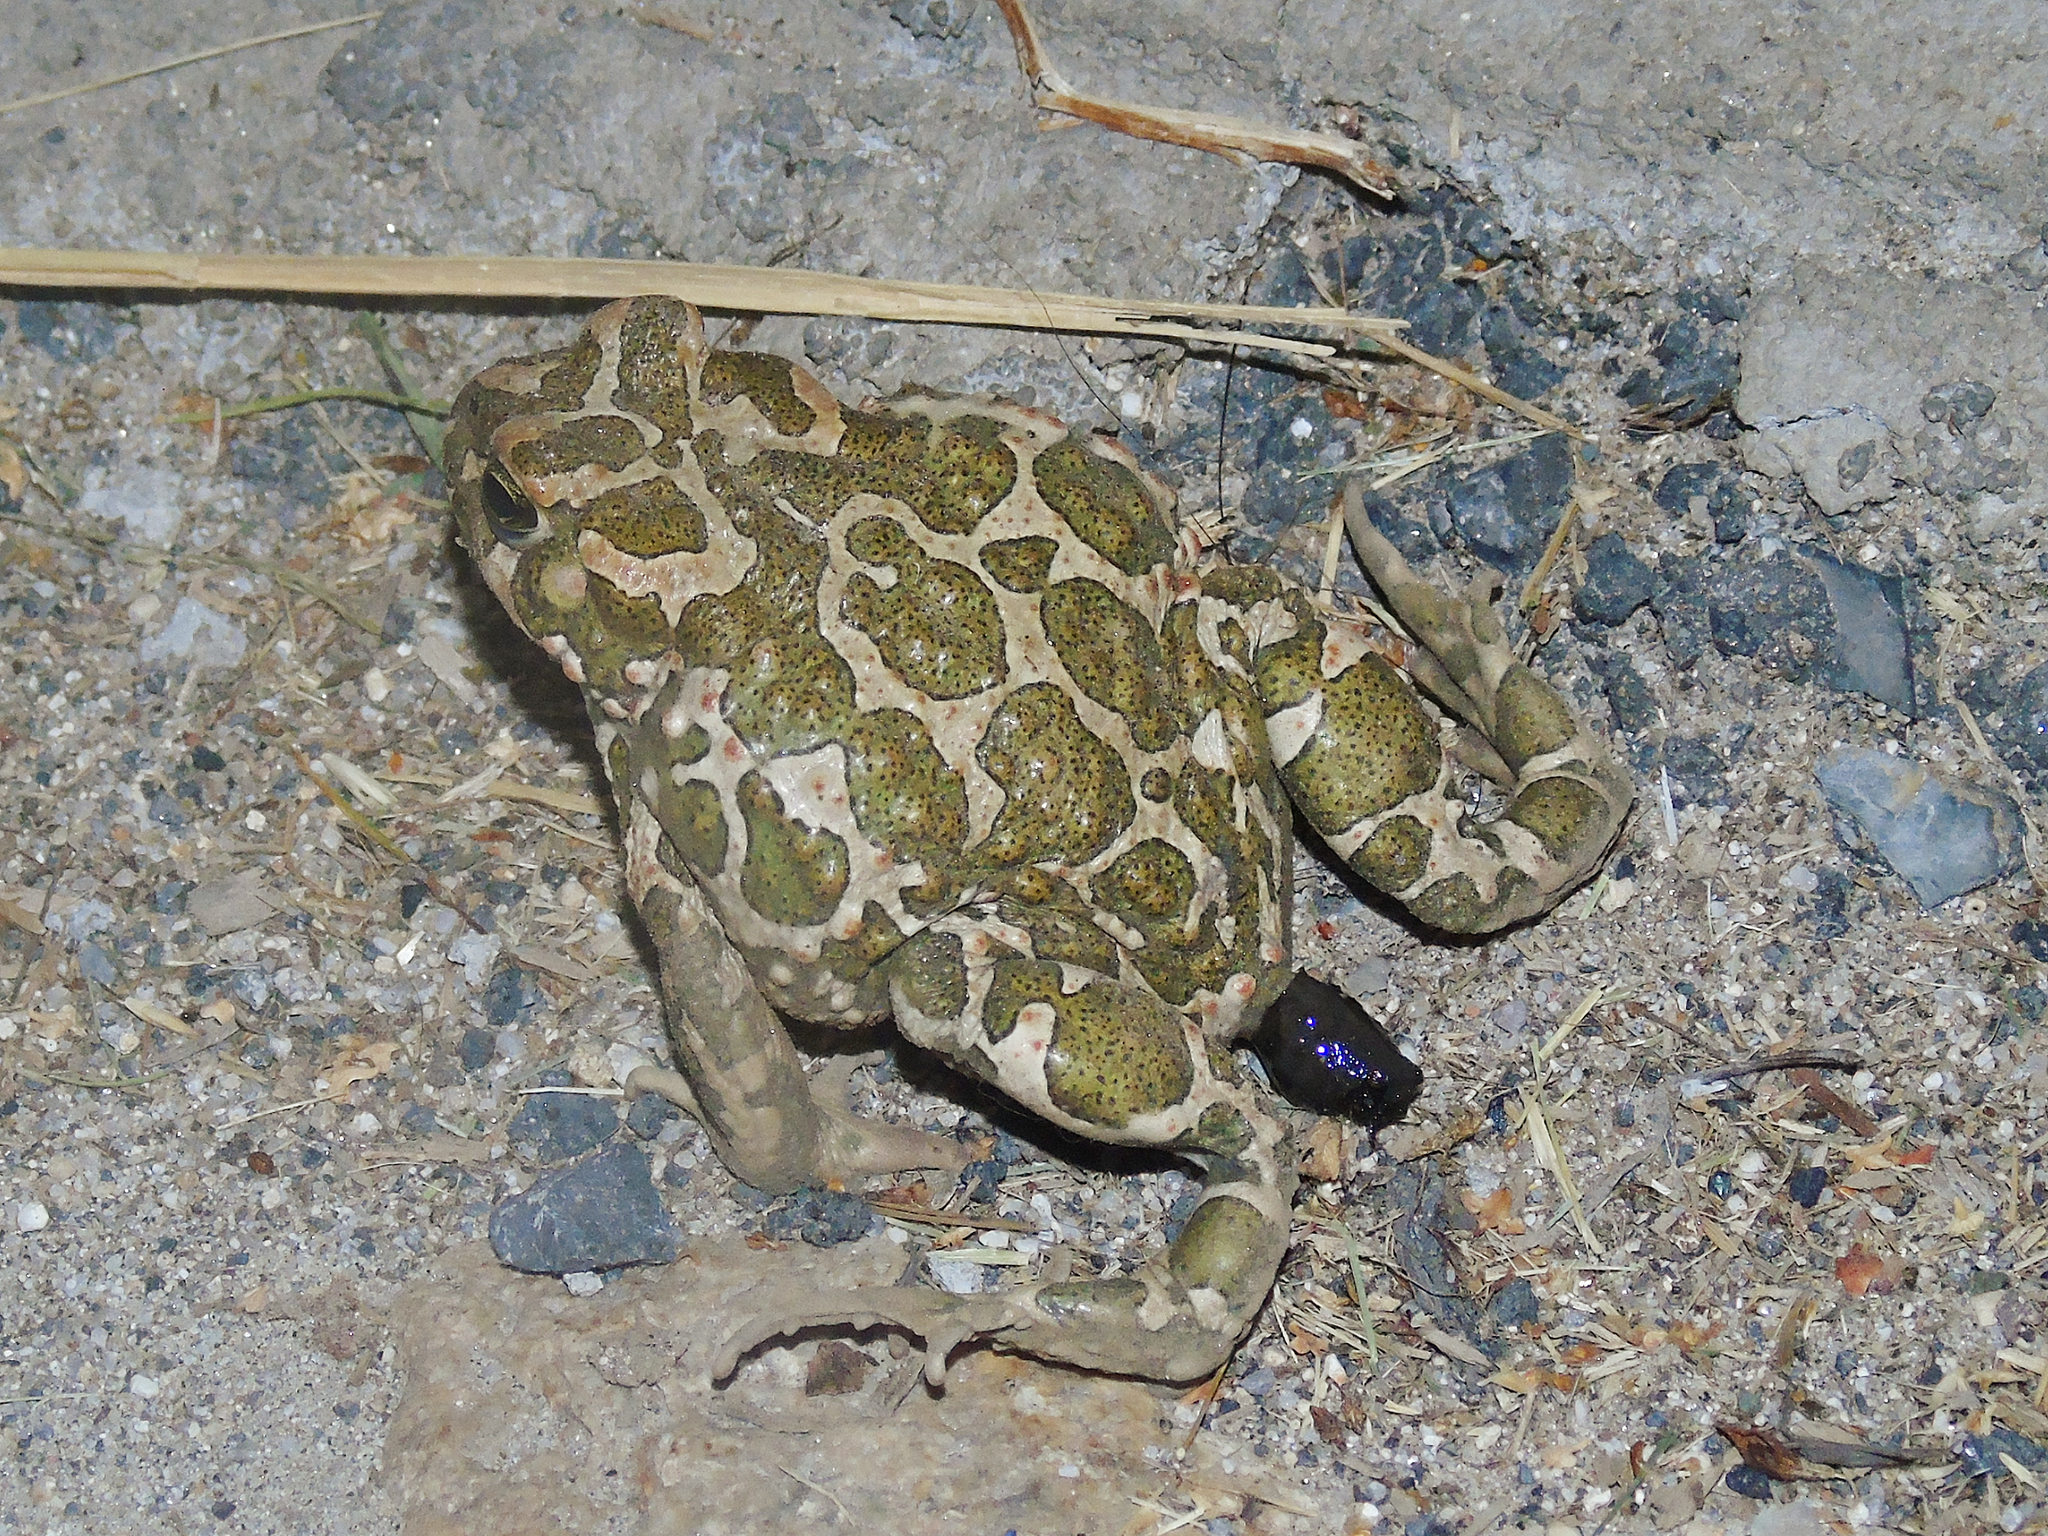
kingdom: Animalia
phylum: Chordata
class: Amphibia
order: Anura
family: Bufonidae
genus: Bufotes
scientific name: Bufotes viridis
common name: European green toad
